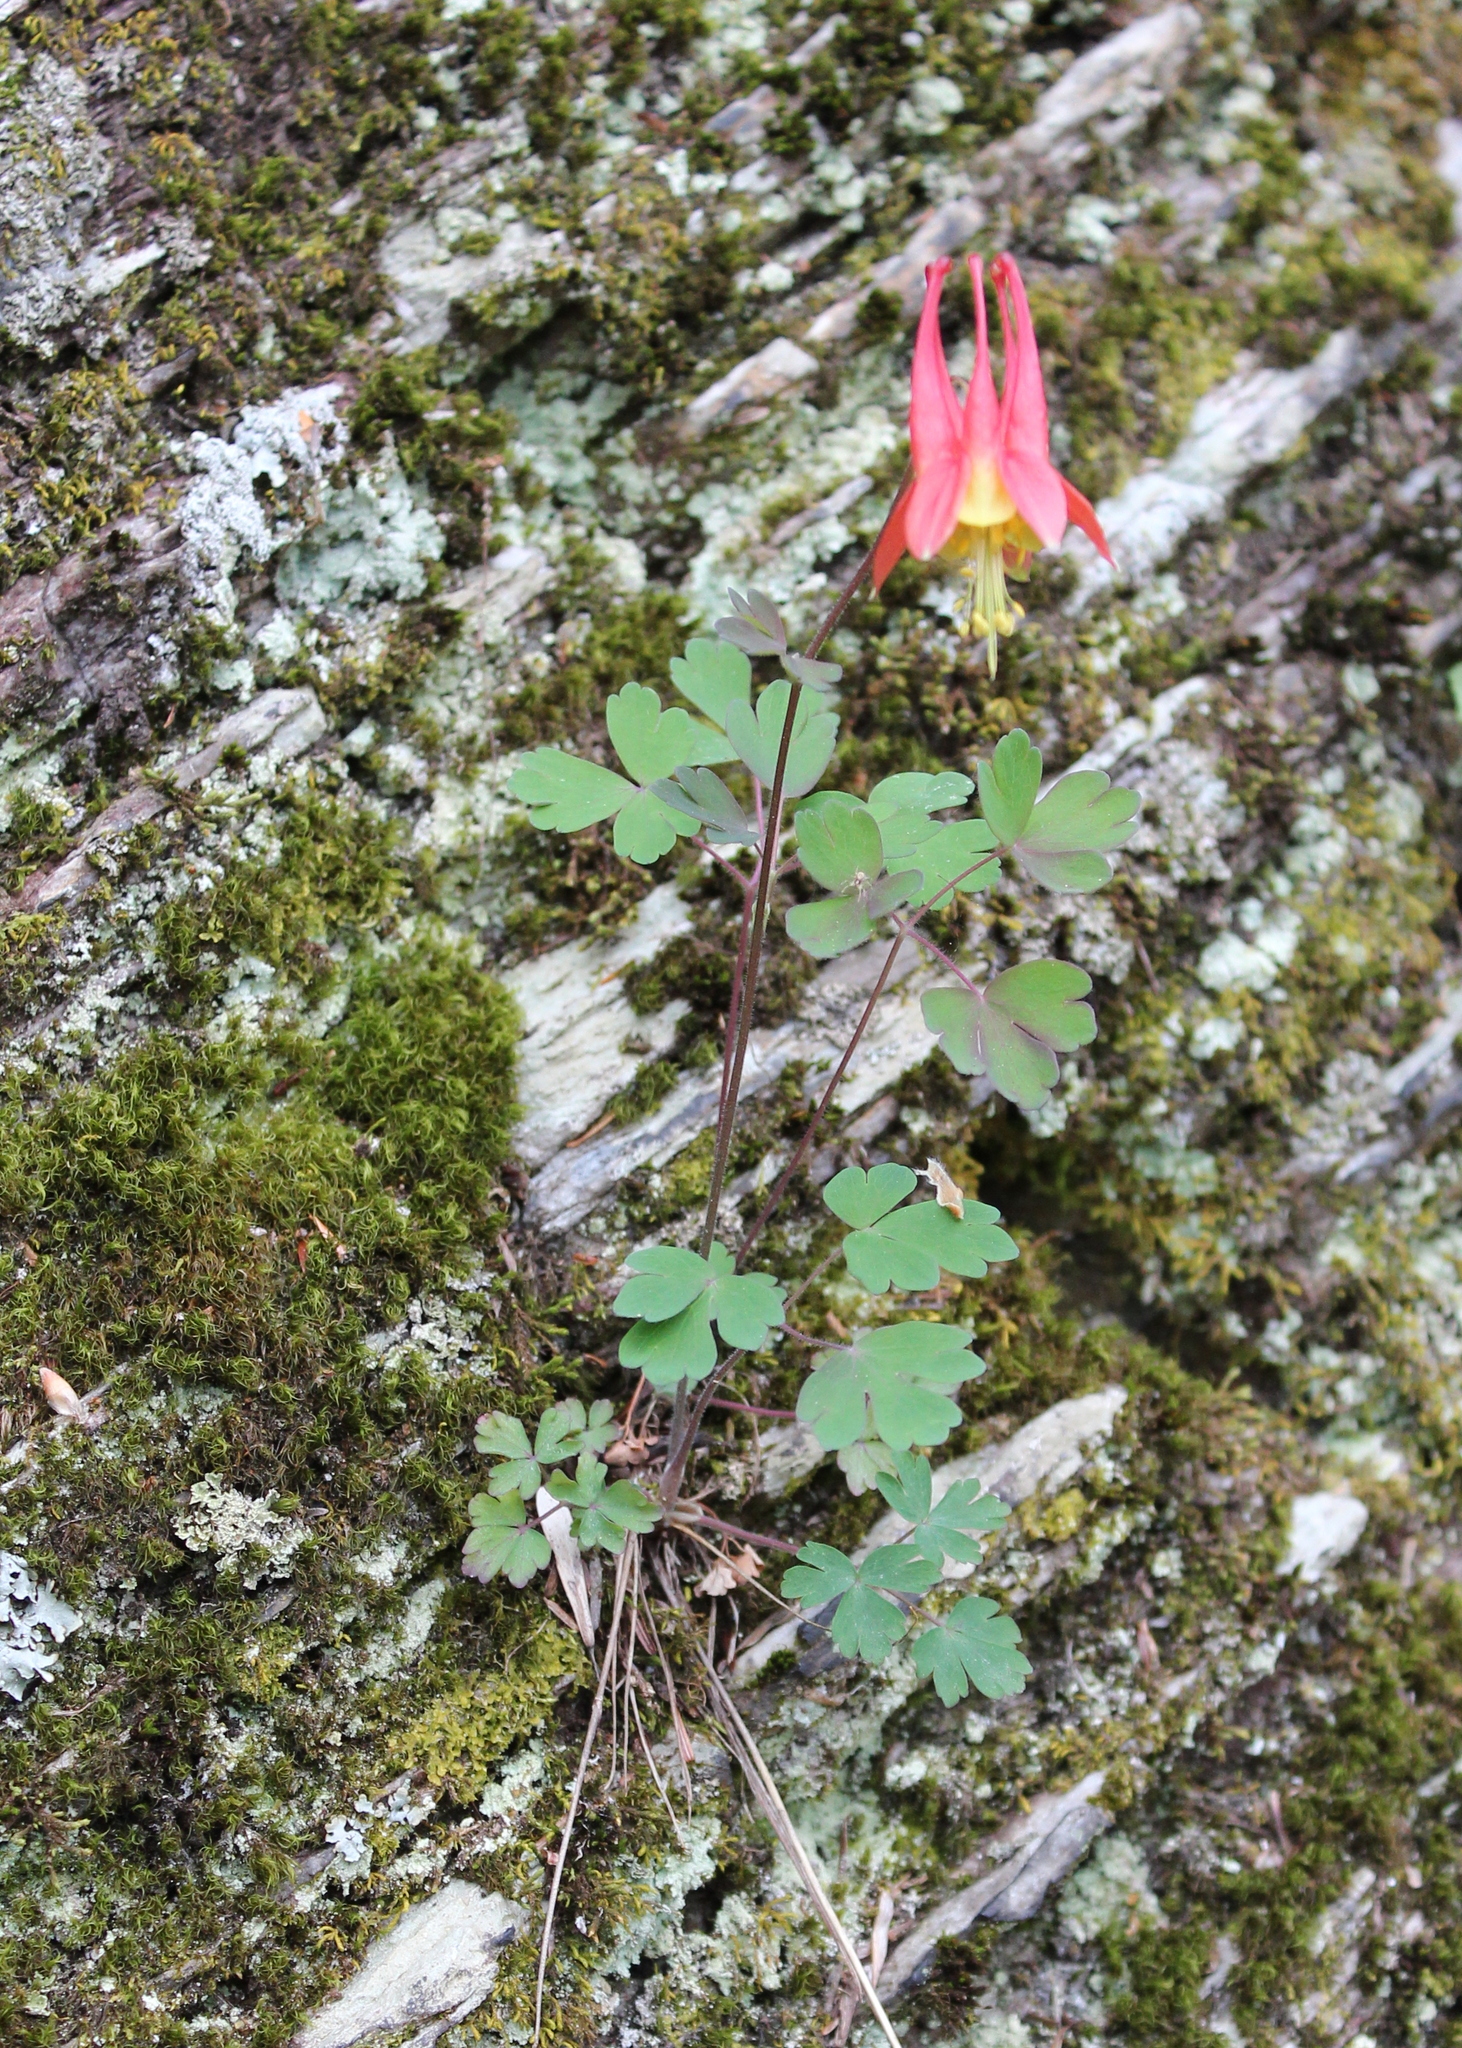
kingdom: Plantae
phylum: Tracheophyta
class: Magnoliopsida
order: Ranunculales
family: Ranunculaceae
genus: Aquilegia
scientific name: Aquilegia canadensis
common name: American columbine
